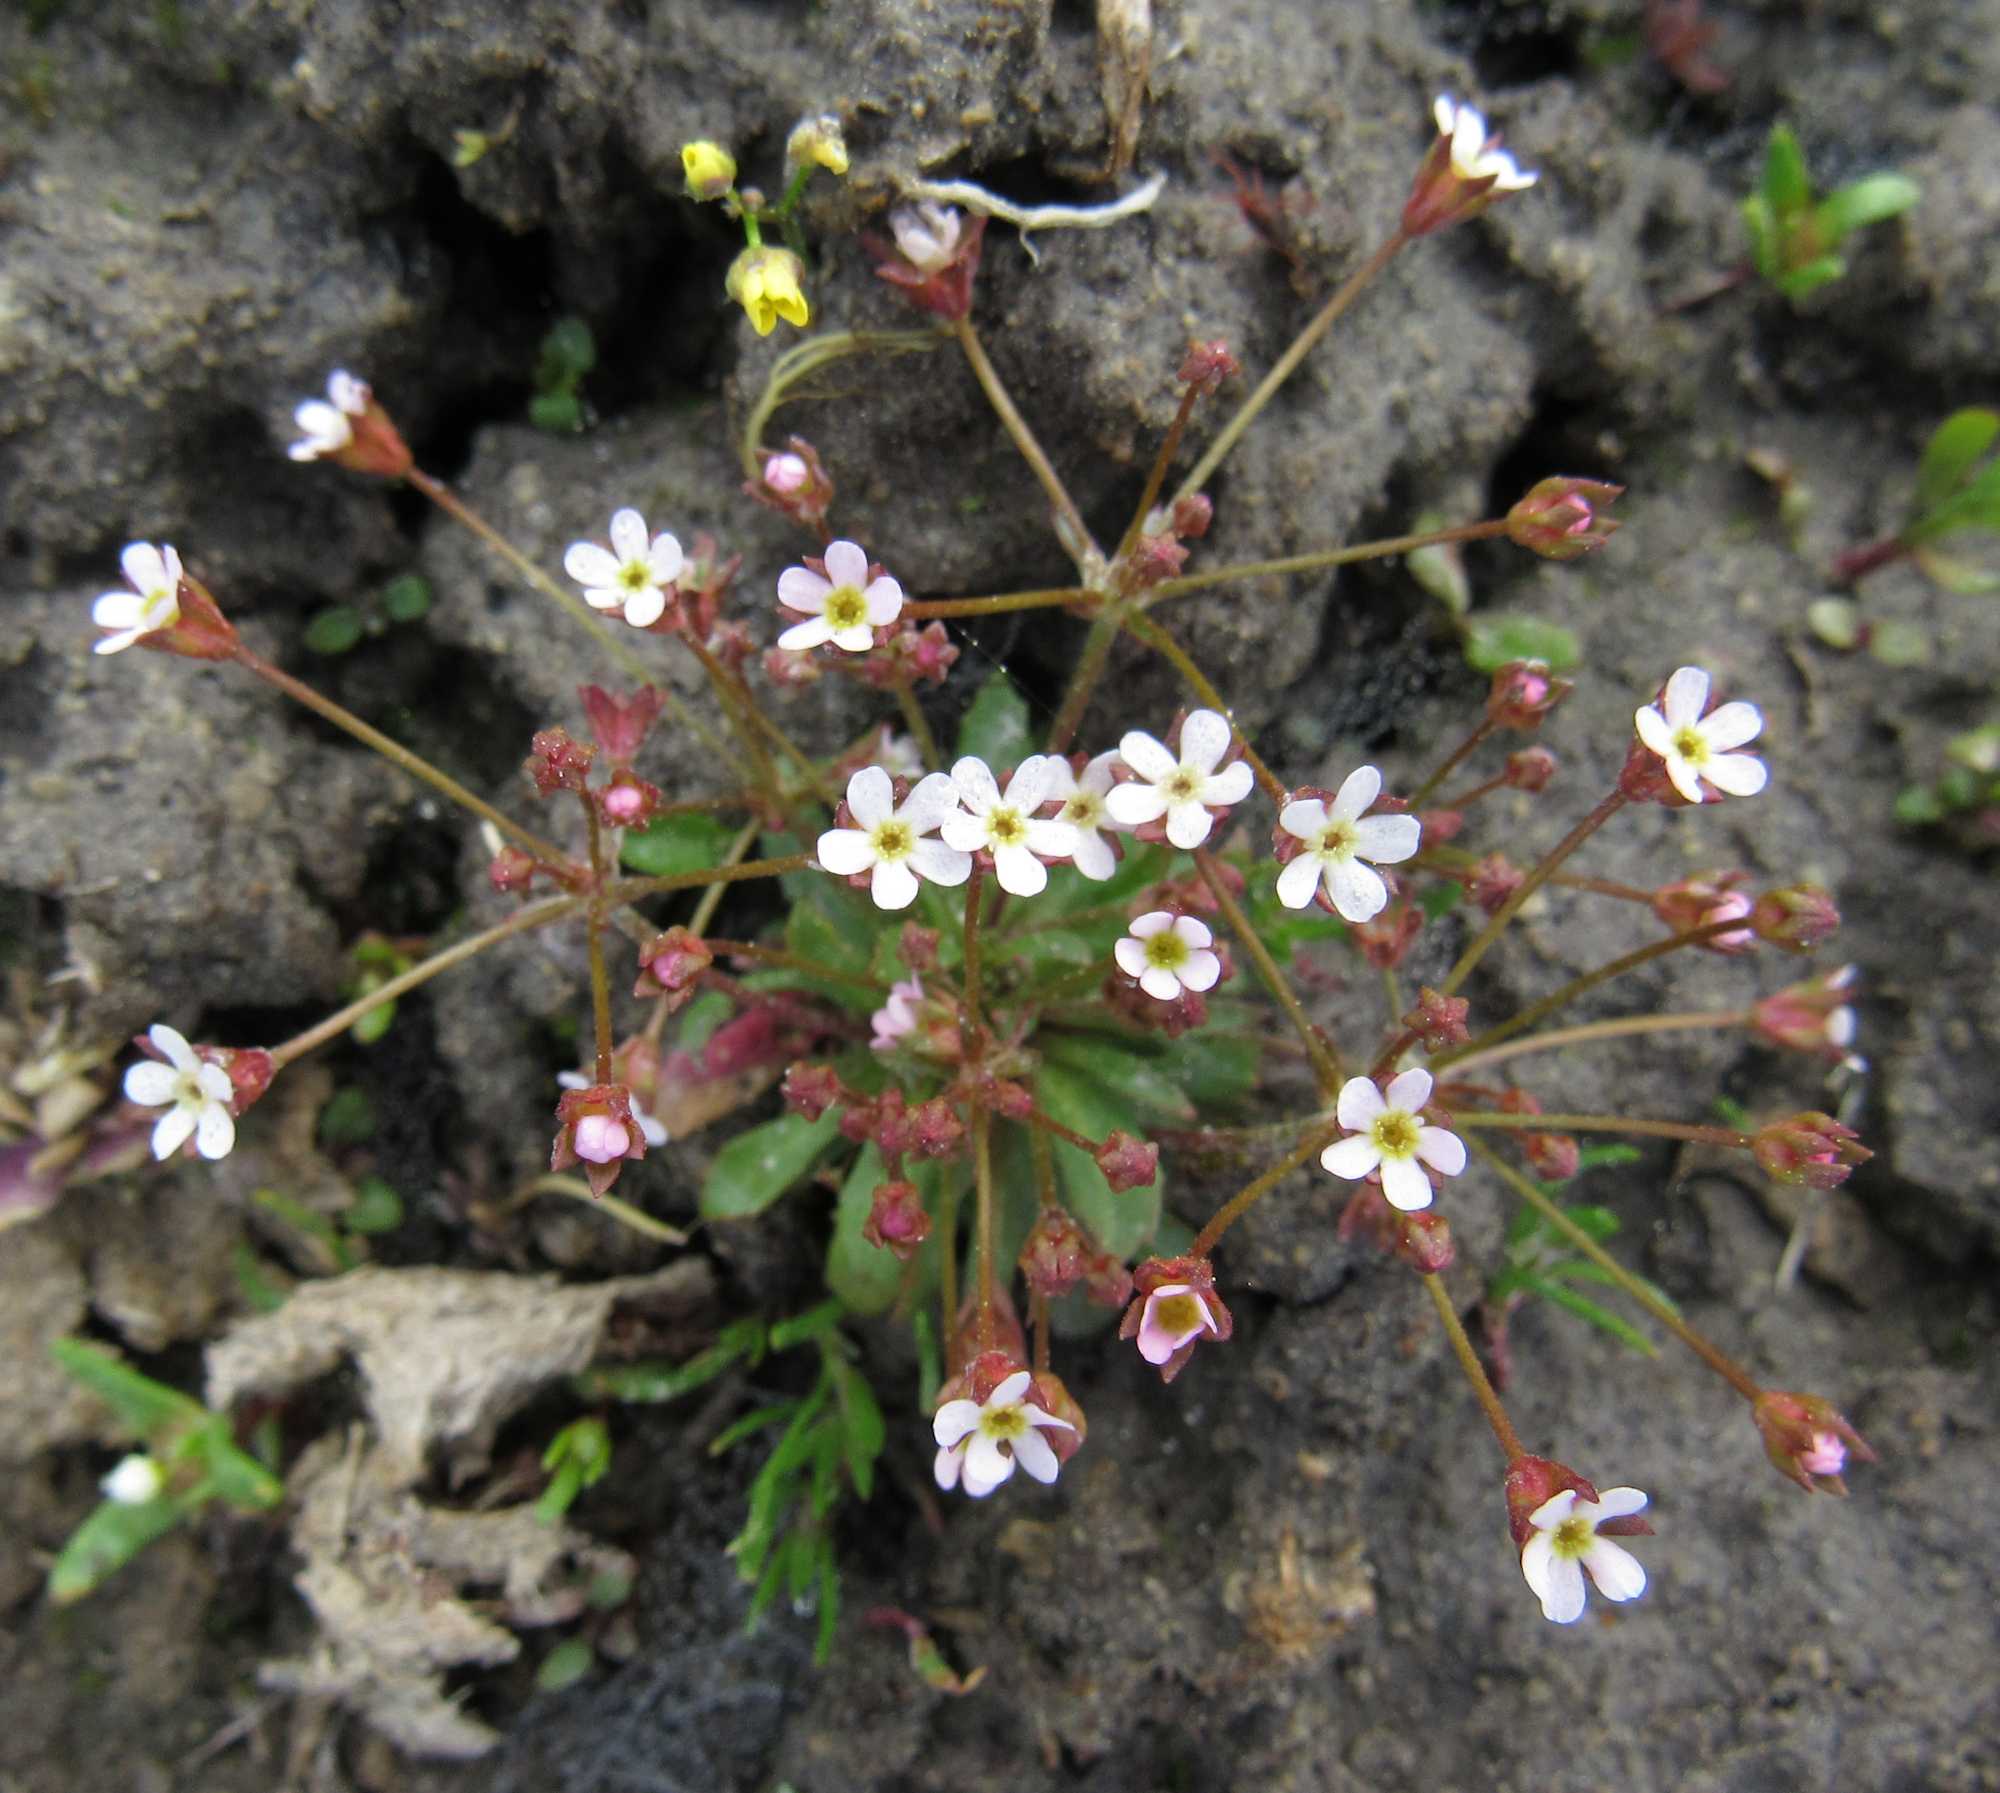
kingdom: Plantae
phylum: Tracheophyta
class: Magnoliopsida
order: Ericales
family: Primulaceae
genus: Androsace
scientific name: Androsace septentrionalis
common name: Hairy northern fairy-candelabra
